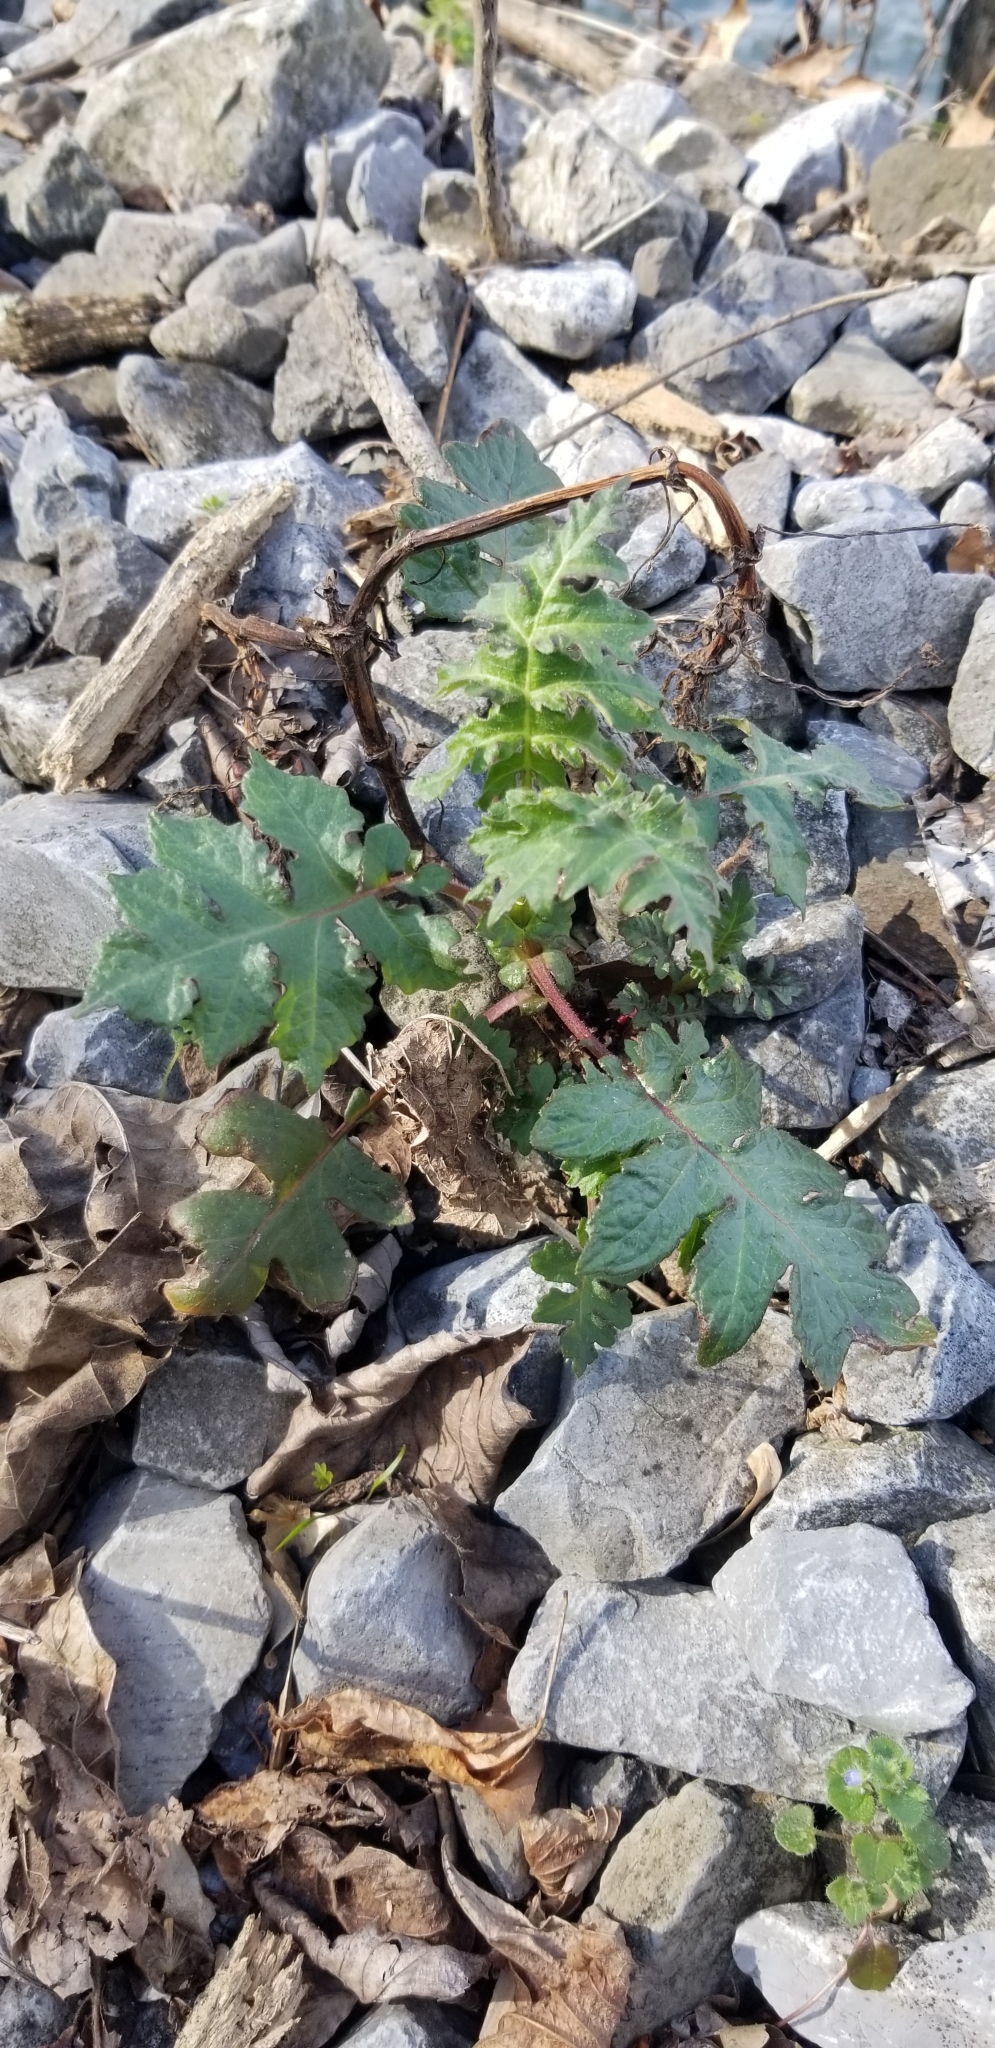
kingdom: Plantae
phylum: Tracheophyta
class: Magnoliopsida
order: Asterales
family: Asteraceae
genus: Polymnia
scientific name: Polymnia canadensis
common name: Pale-flowered leafcup
